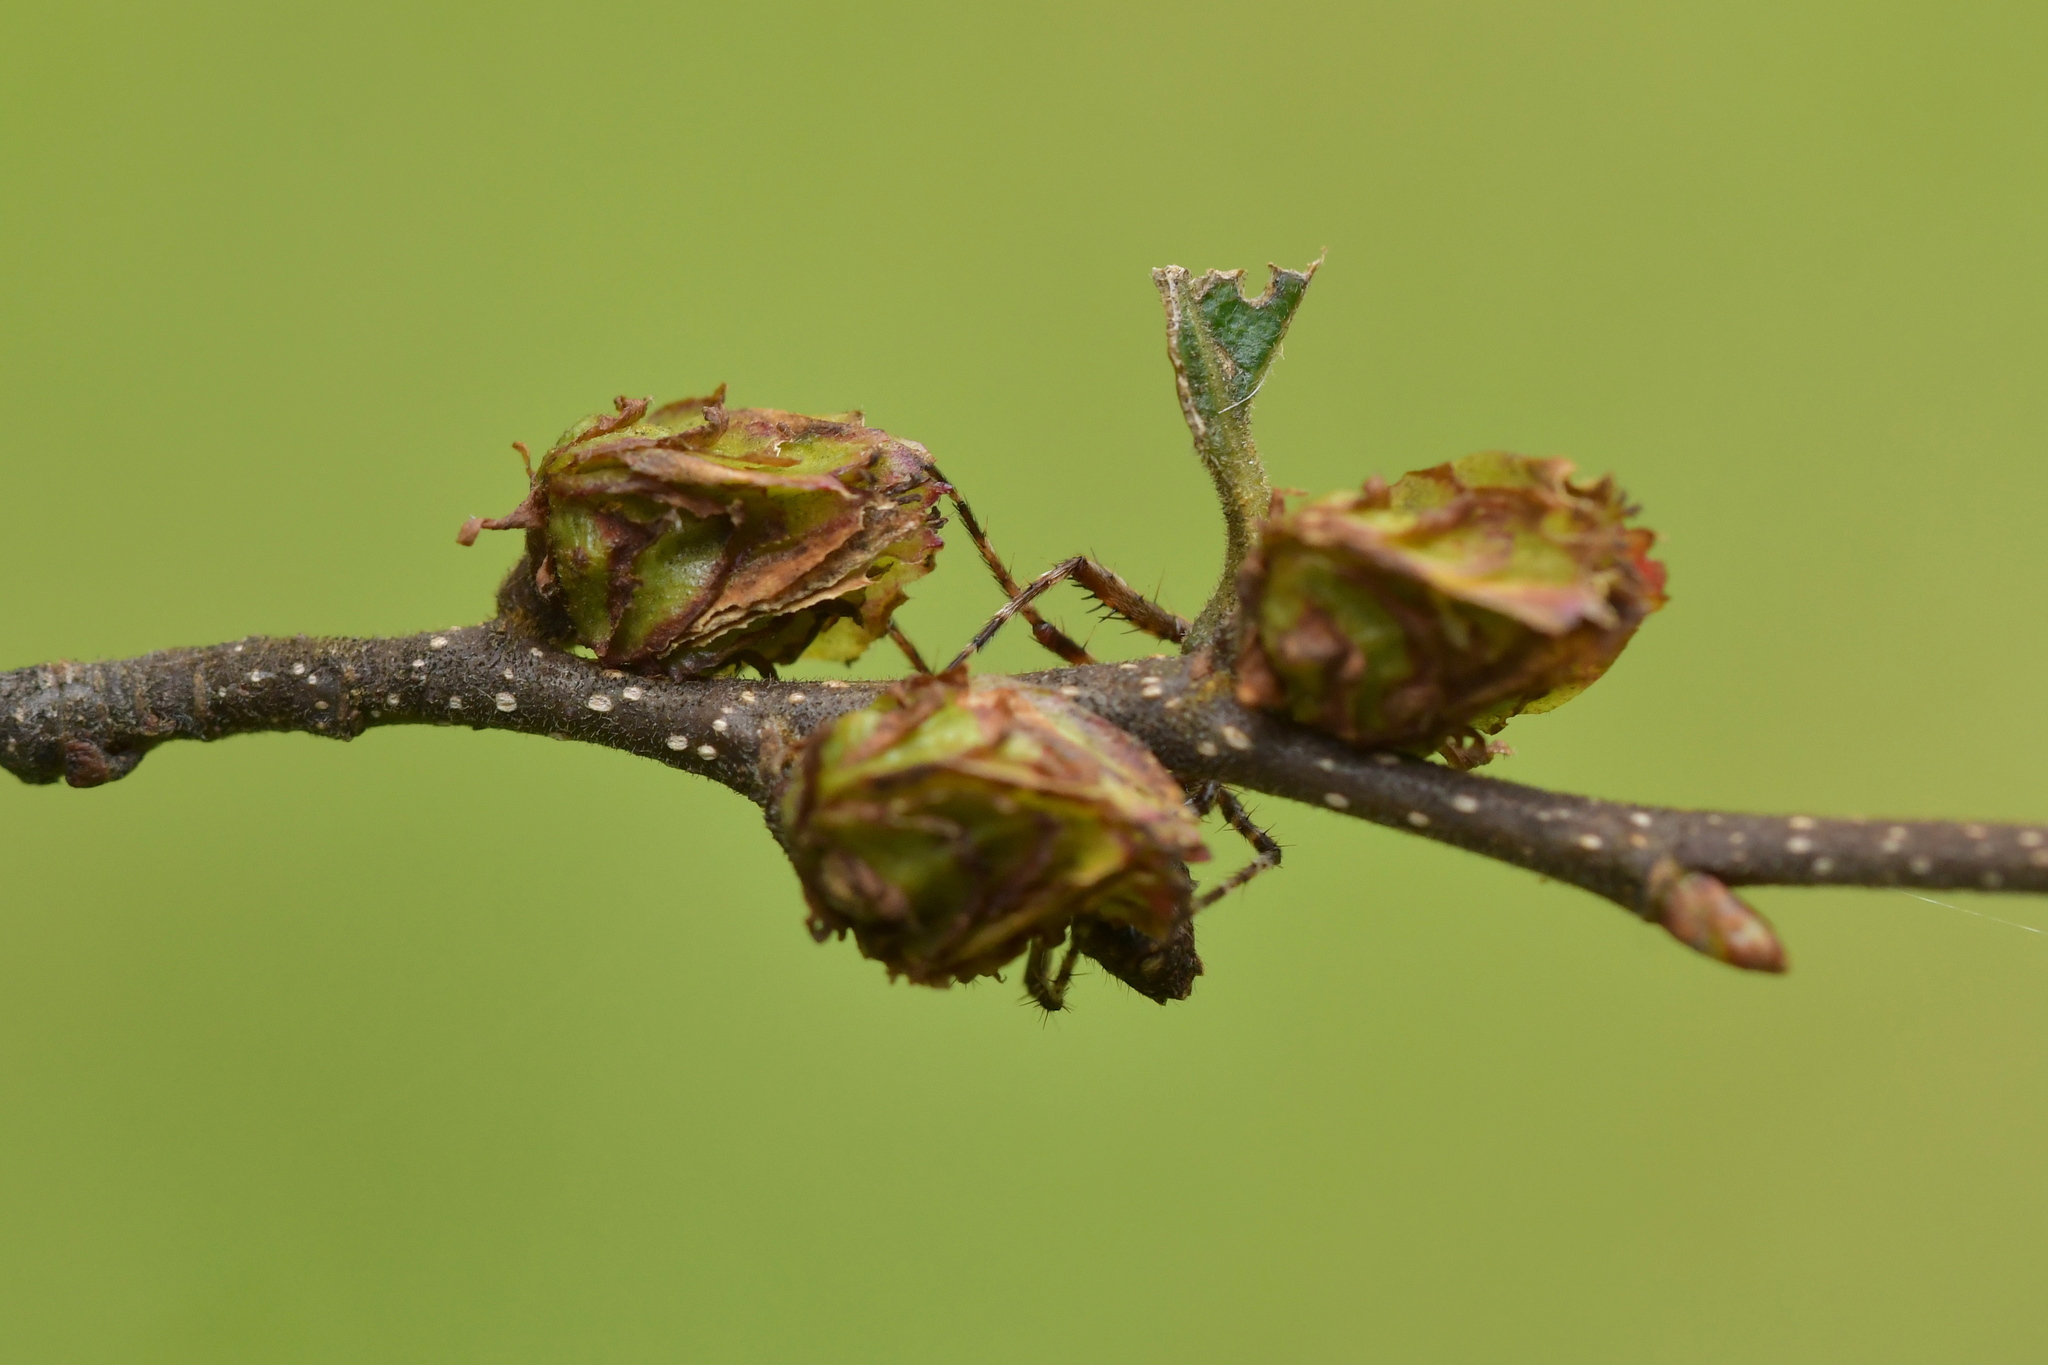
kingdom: Plantae
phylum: Tracheophyta
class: Magnoliopsida
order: Fagales
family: Nothofagaceae
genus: Nothofagus
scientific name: Nothofagus fusca
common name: Red beech
